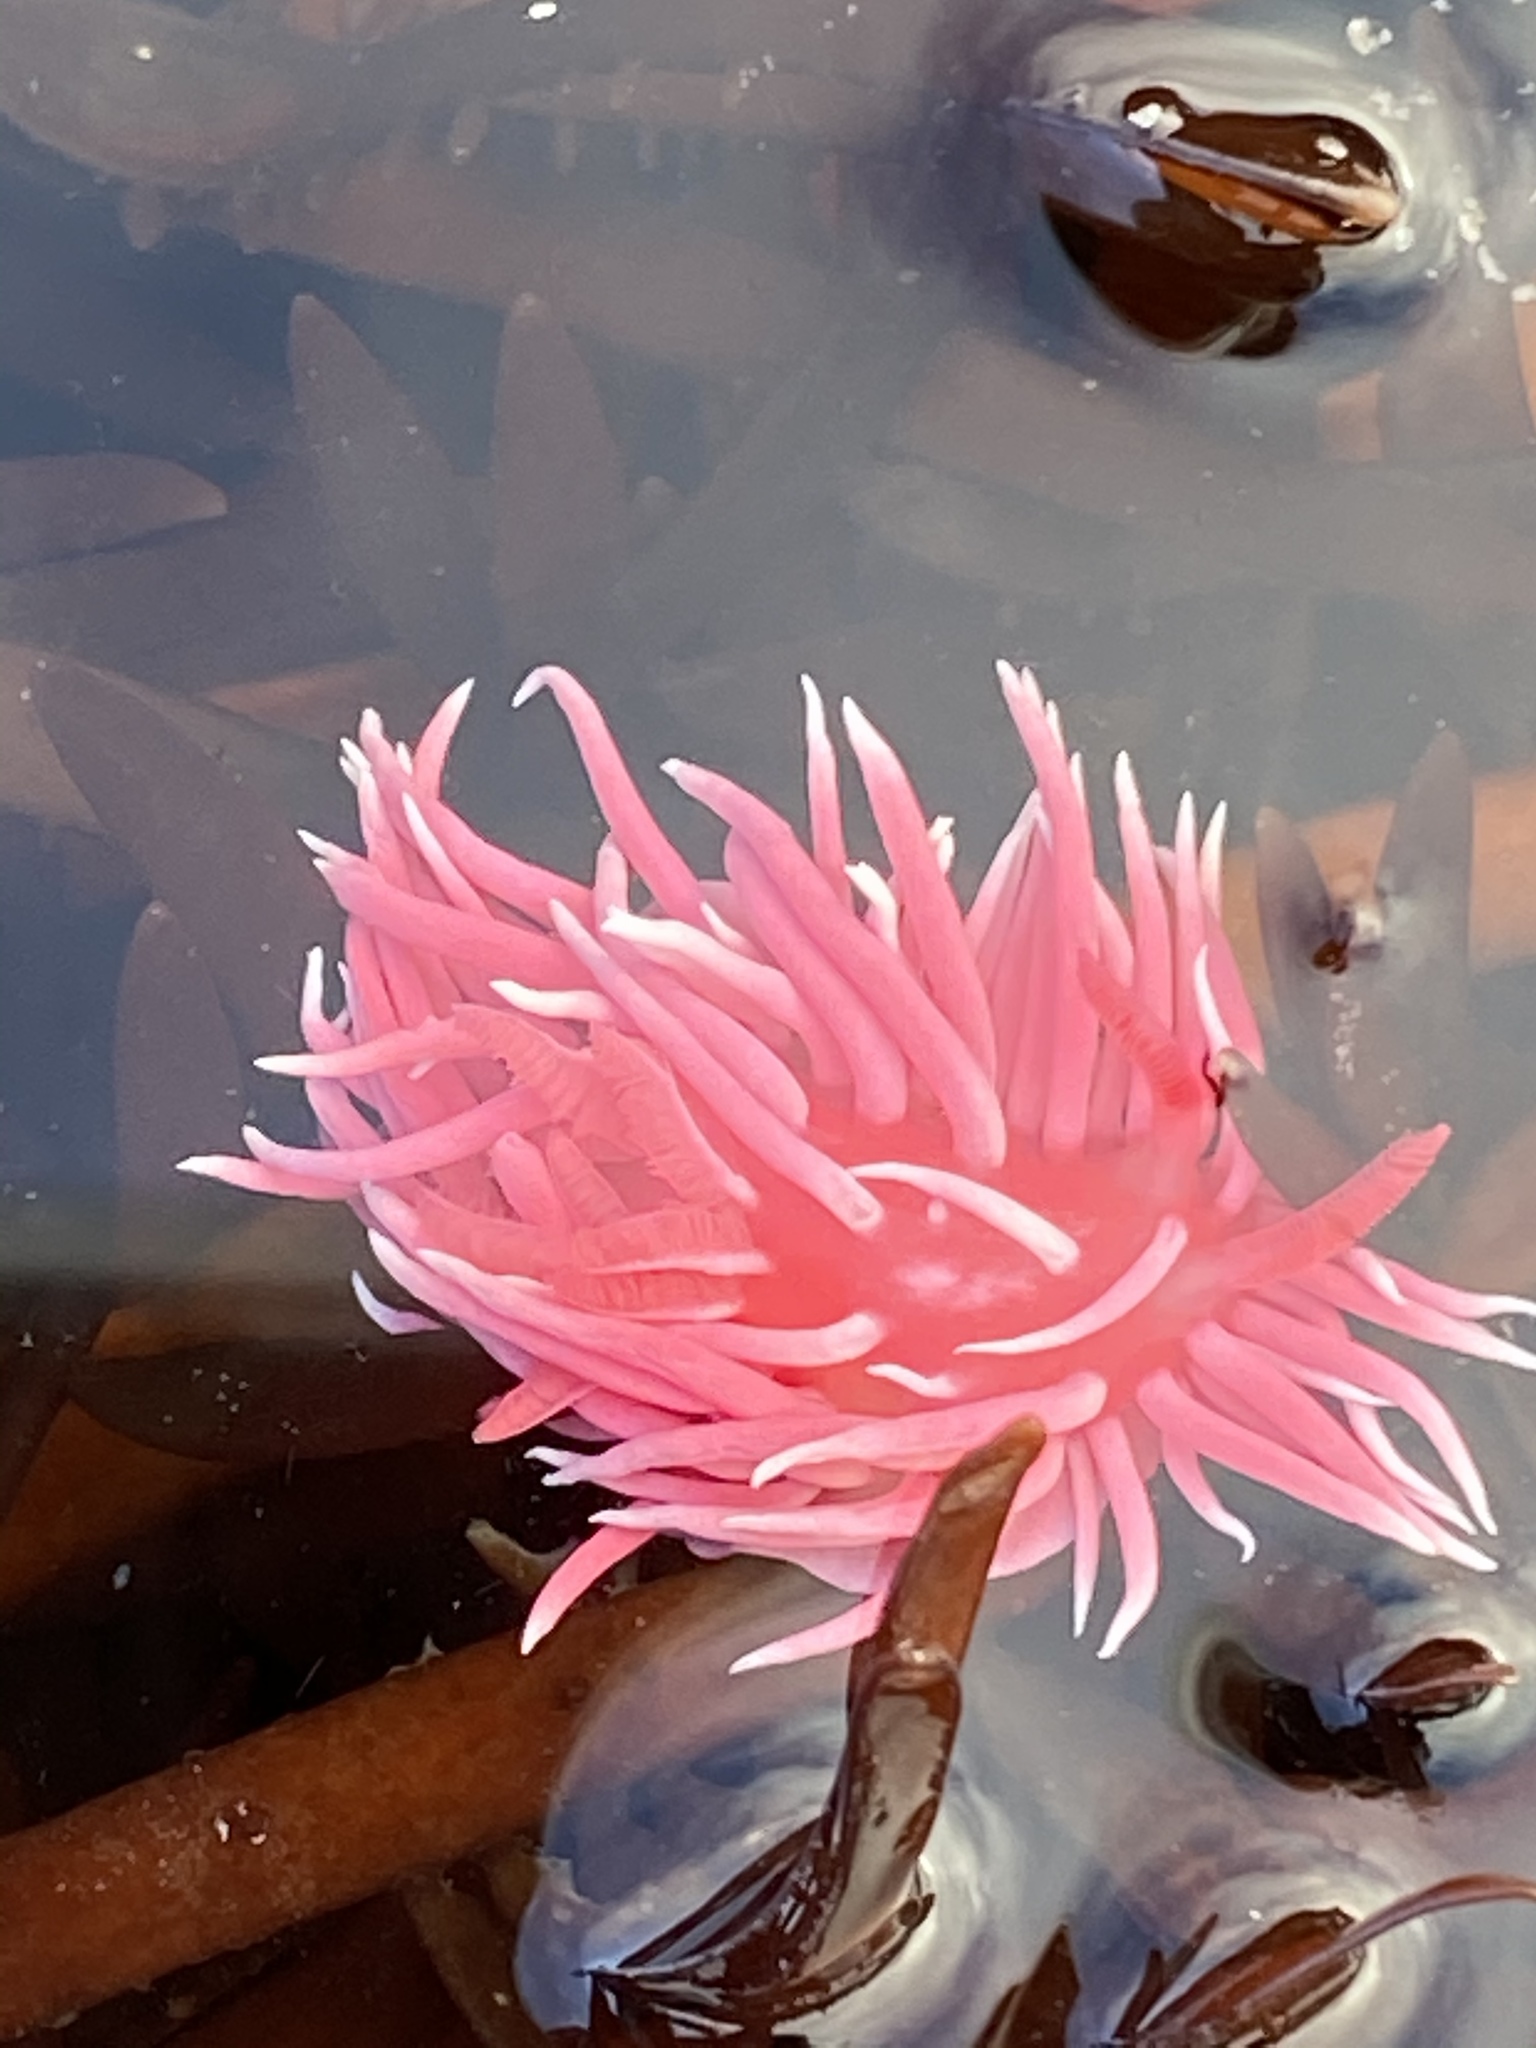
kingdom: Animalia
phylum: Mollusca
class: Gastropoda
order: Nudibranchia
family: Goniodorididae
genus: Okenia
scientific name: Okenia
